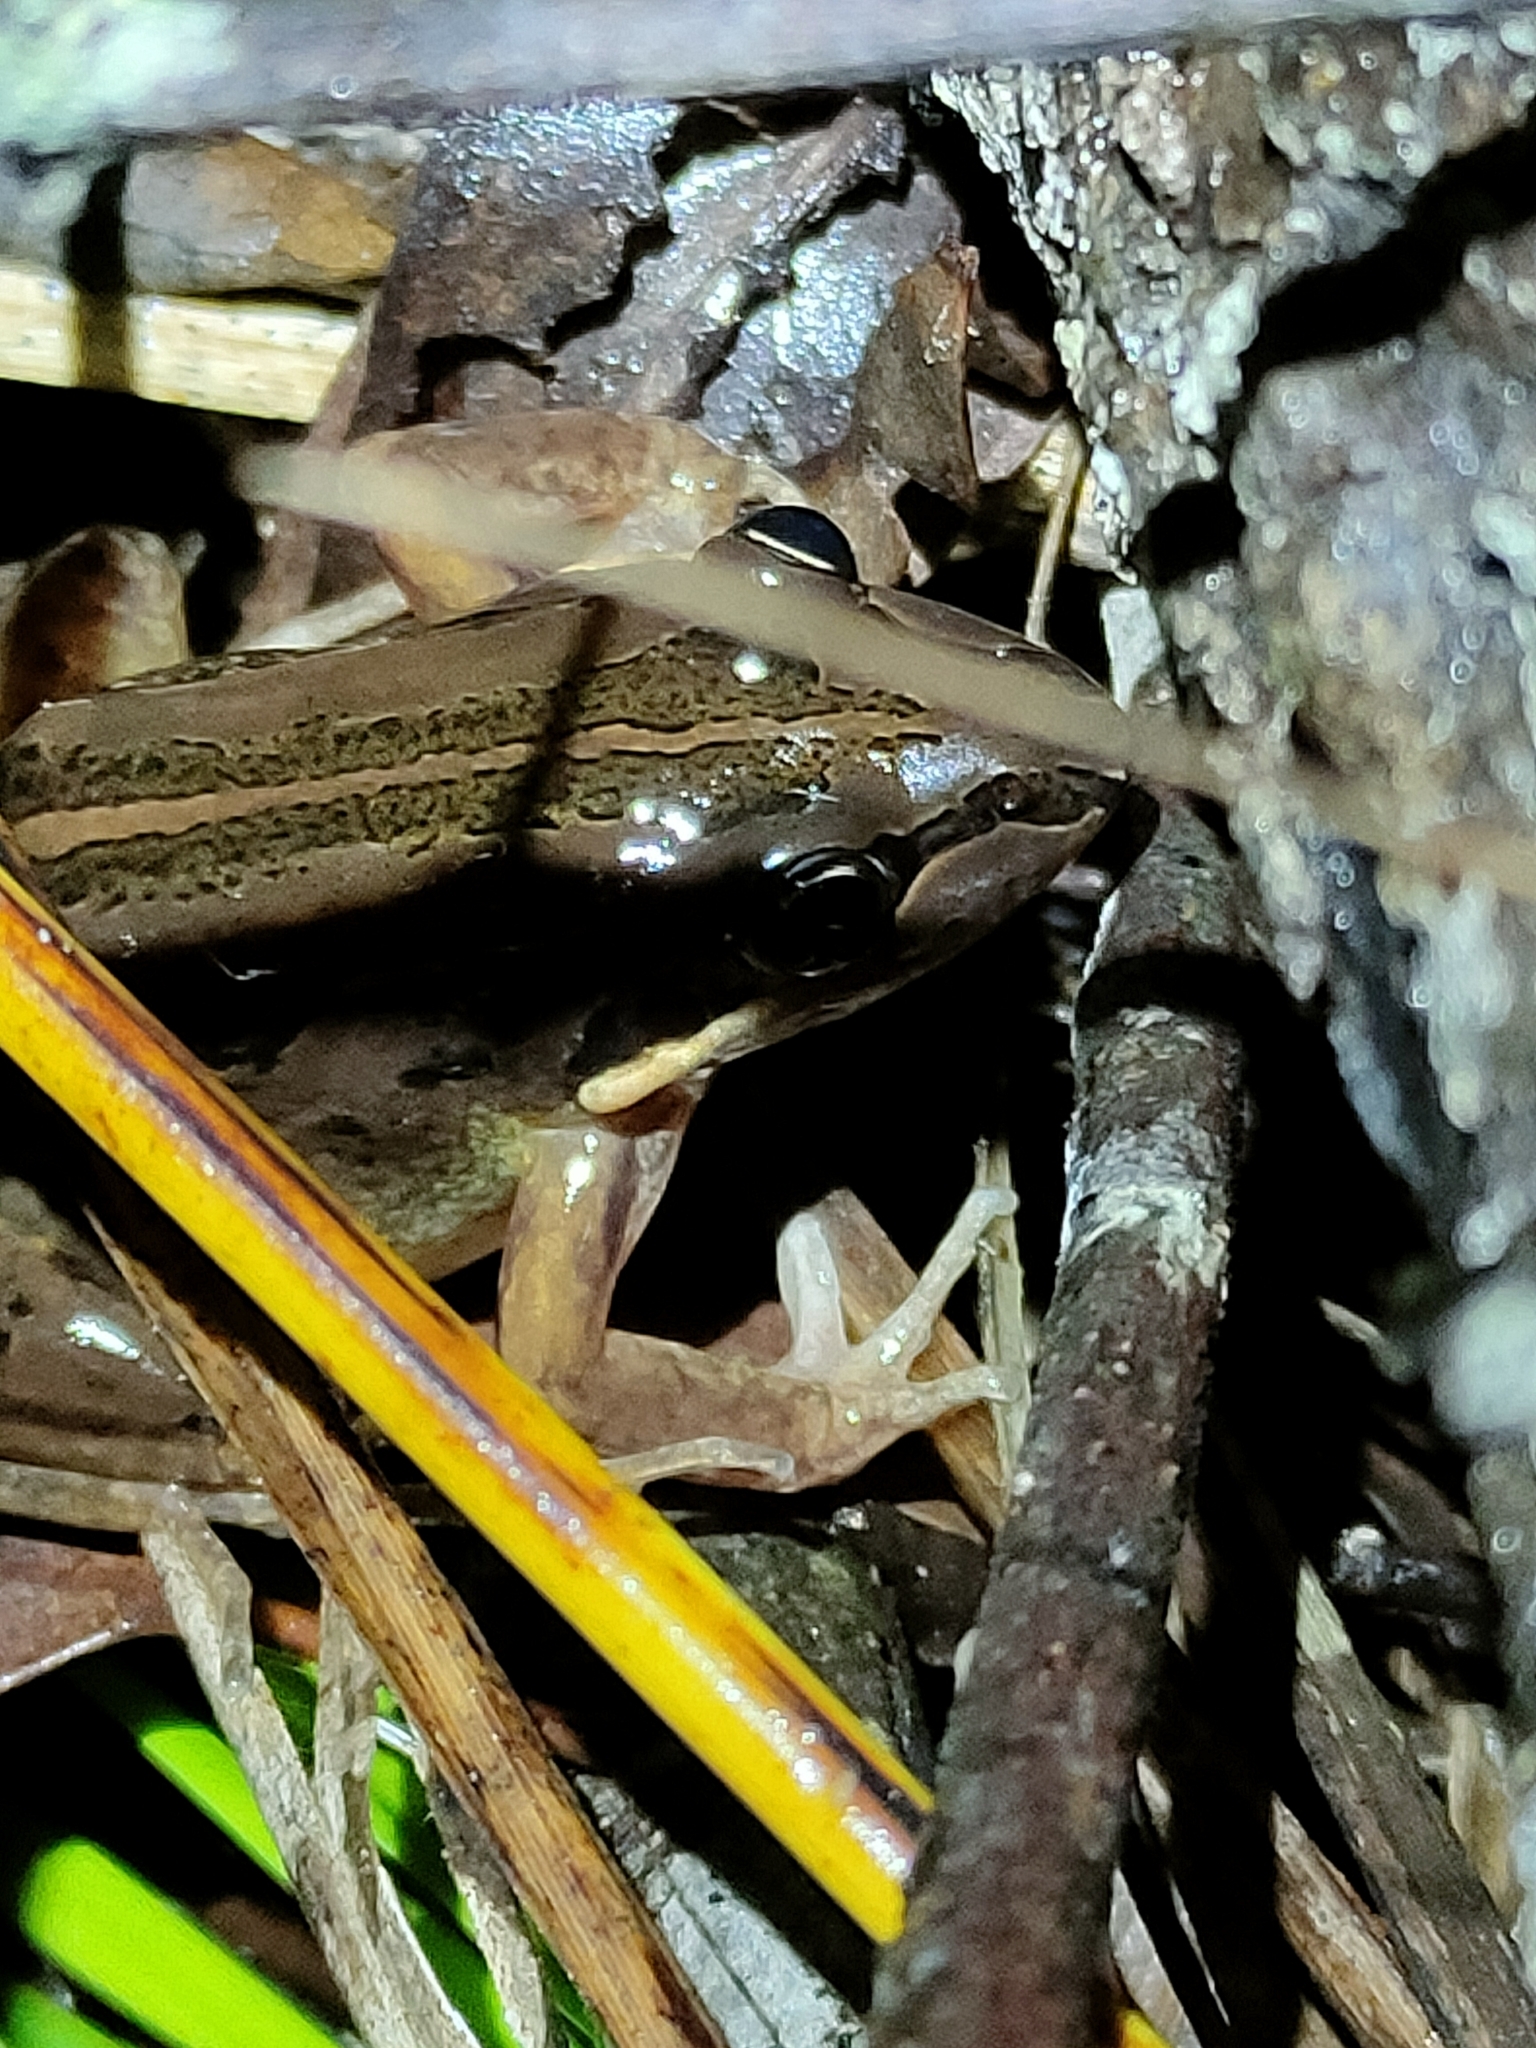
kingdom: Animalia
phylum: Chordata
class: Amphibia
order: Anura
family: Limnodynastidae
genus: Limnodynastes
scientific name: Limnodynastes peronii
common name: Brown frog
